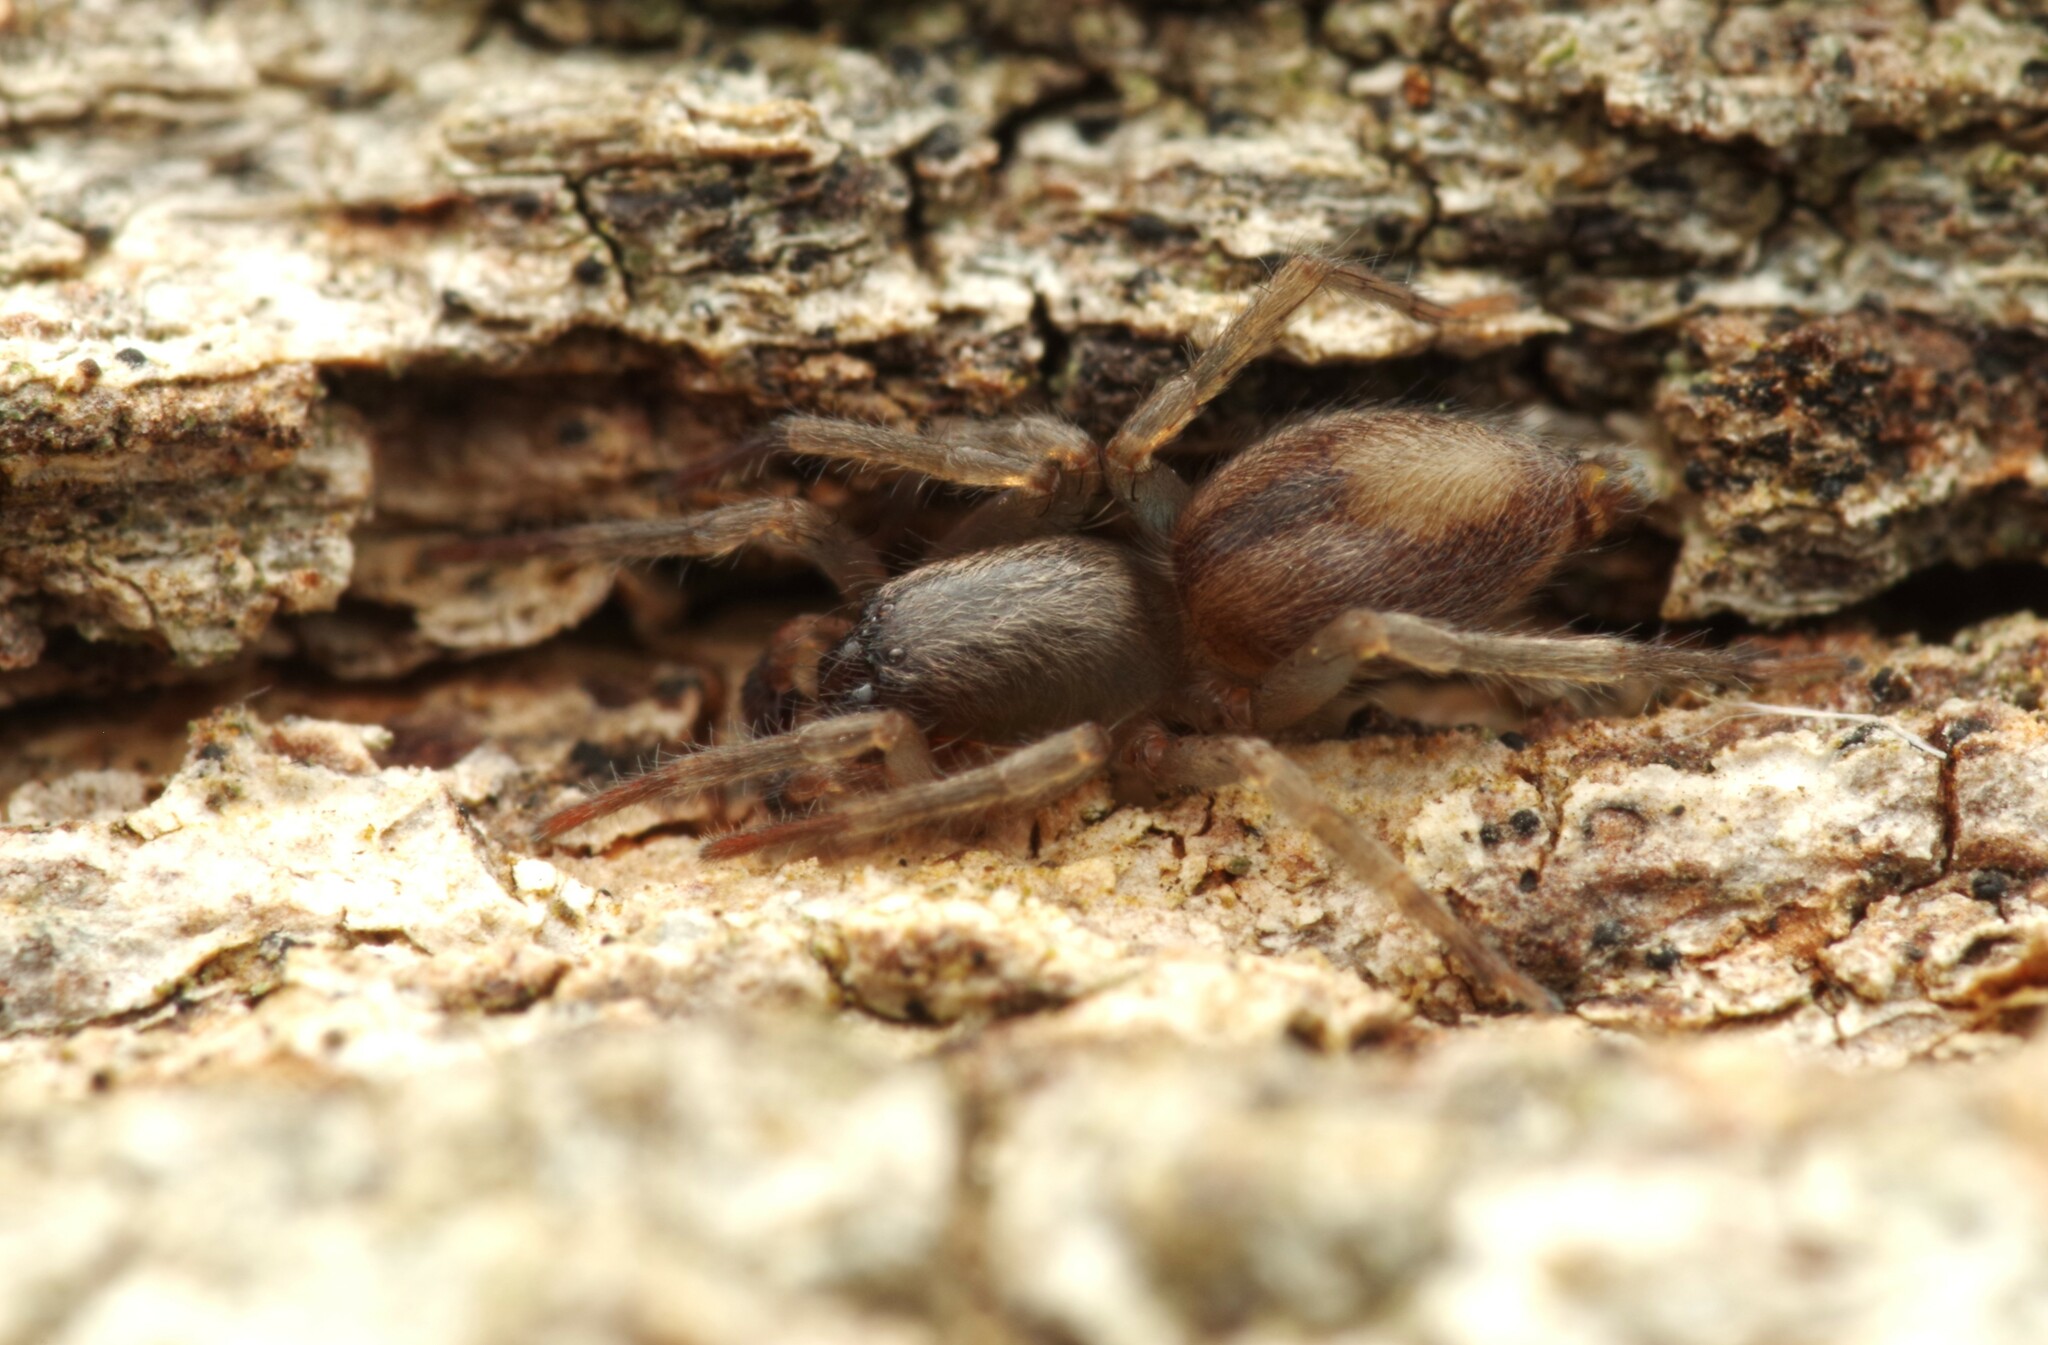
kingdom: Animalia
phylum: Arthropoda
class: Arachnida
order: Araneae
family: Clubionidae
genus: Porrhoclubiona
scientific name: Porrhoclubiona leucaspis
